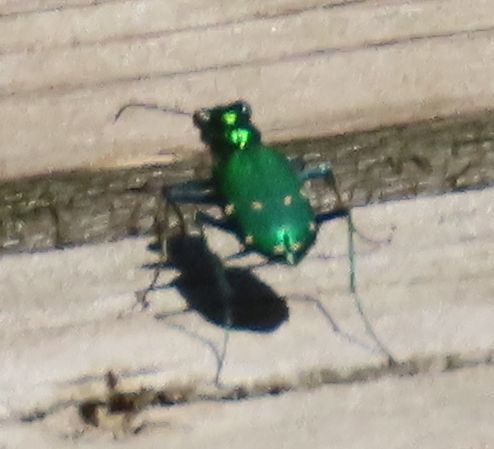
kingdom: Animalia
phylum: Arthropoda
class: Insecta
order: Coleoptera
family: Carabidae
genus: Cicindela
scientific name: Cicindela sexguttata
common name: Six-spotted tiger beetle
